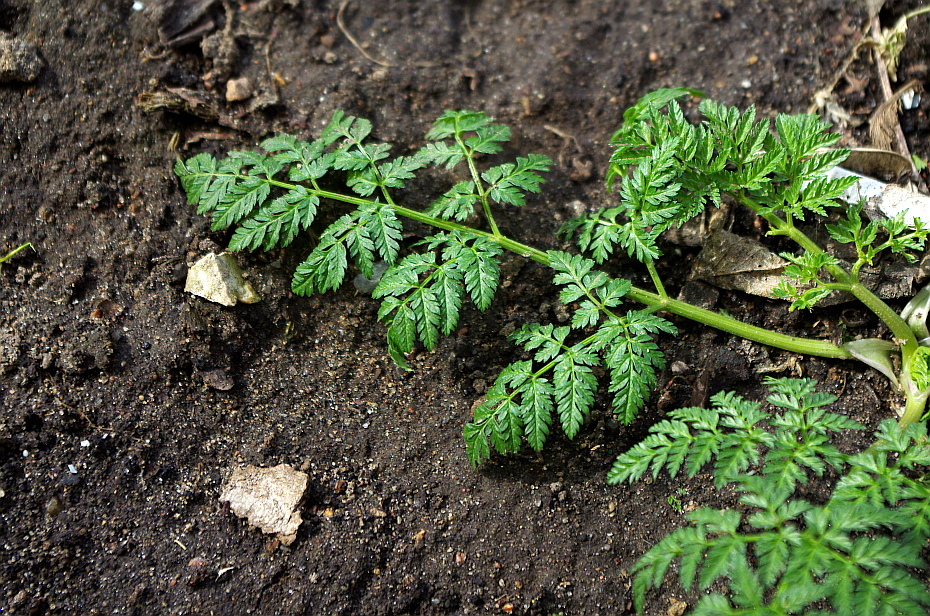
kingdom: Plantae
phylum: Tracheophyta
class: Magnoliopsida
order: Apiales
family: Apiaceae
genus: Anthriscus
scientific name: Anthriscus sylvestris
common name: Cow parsley
